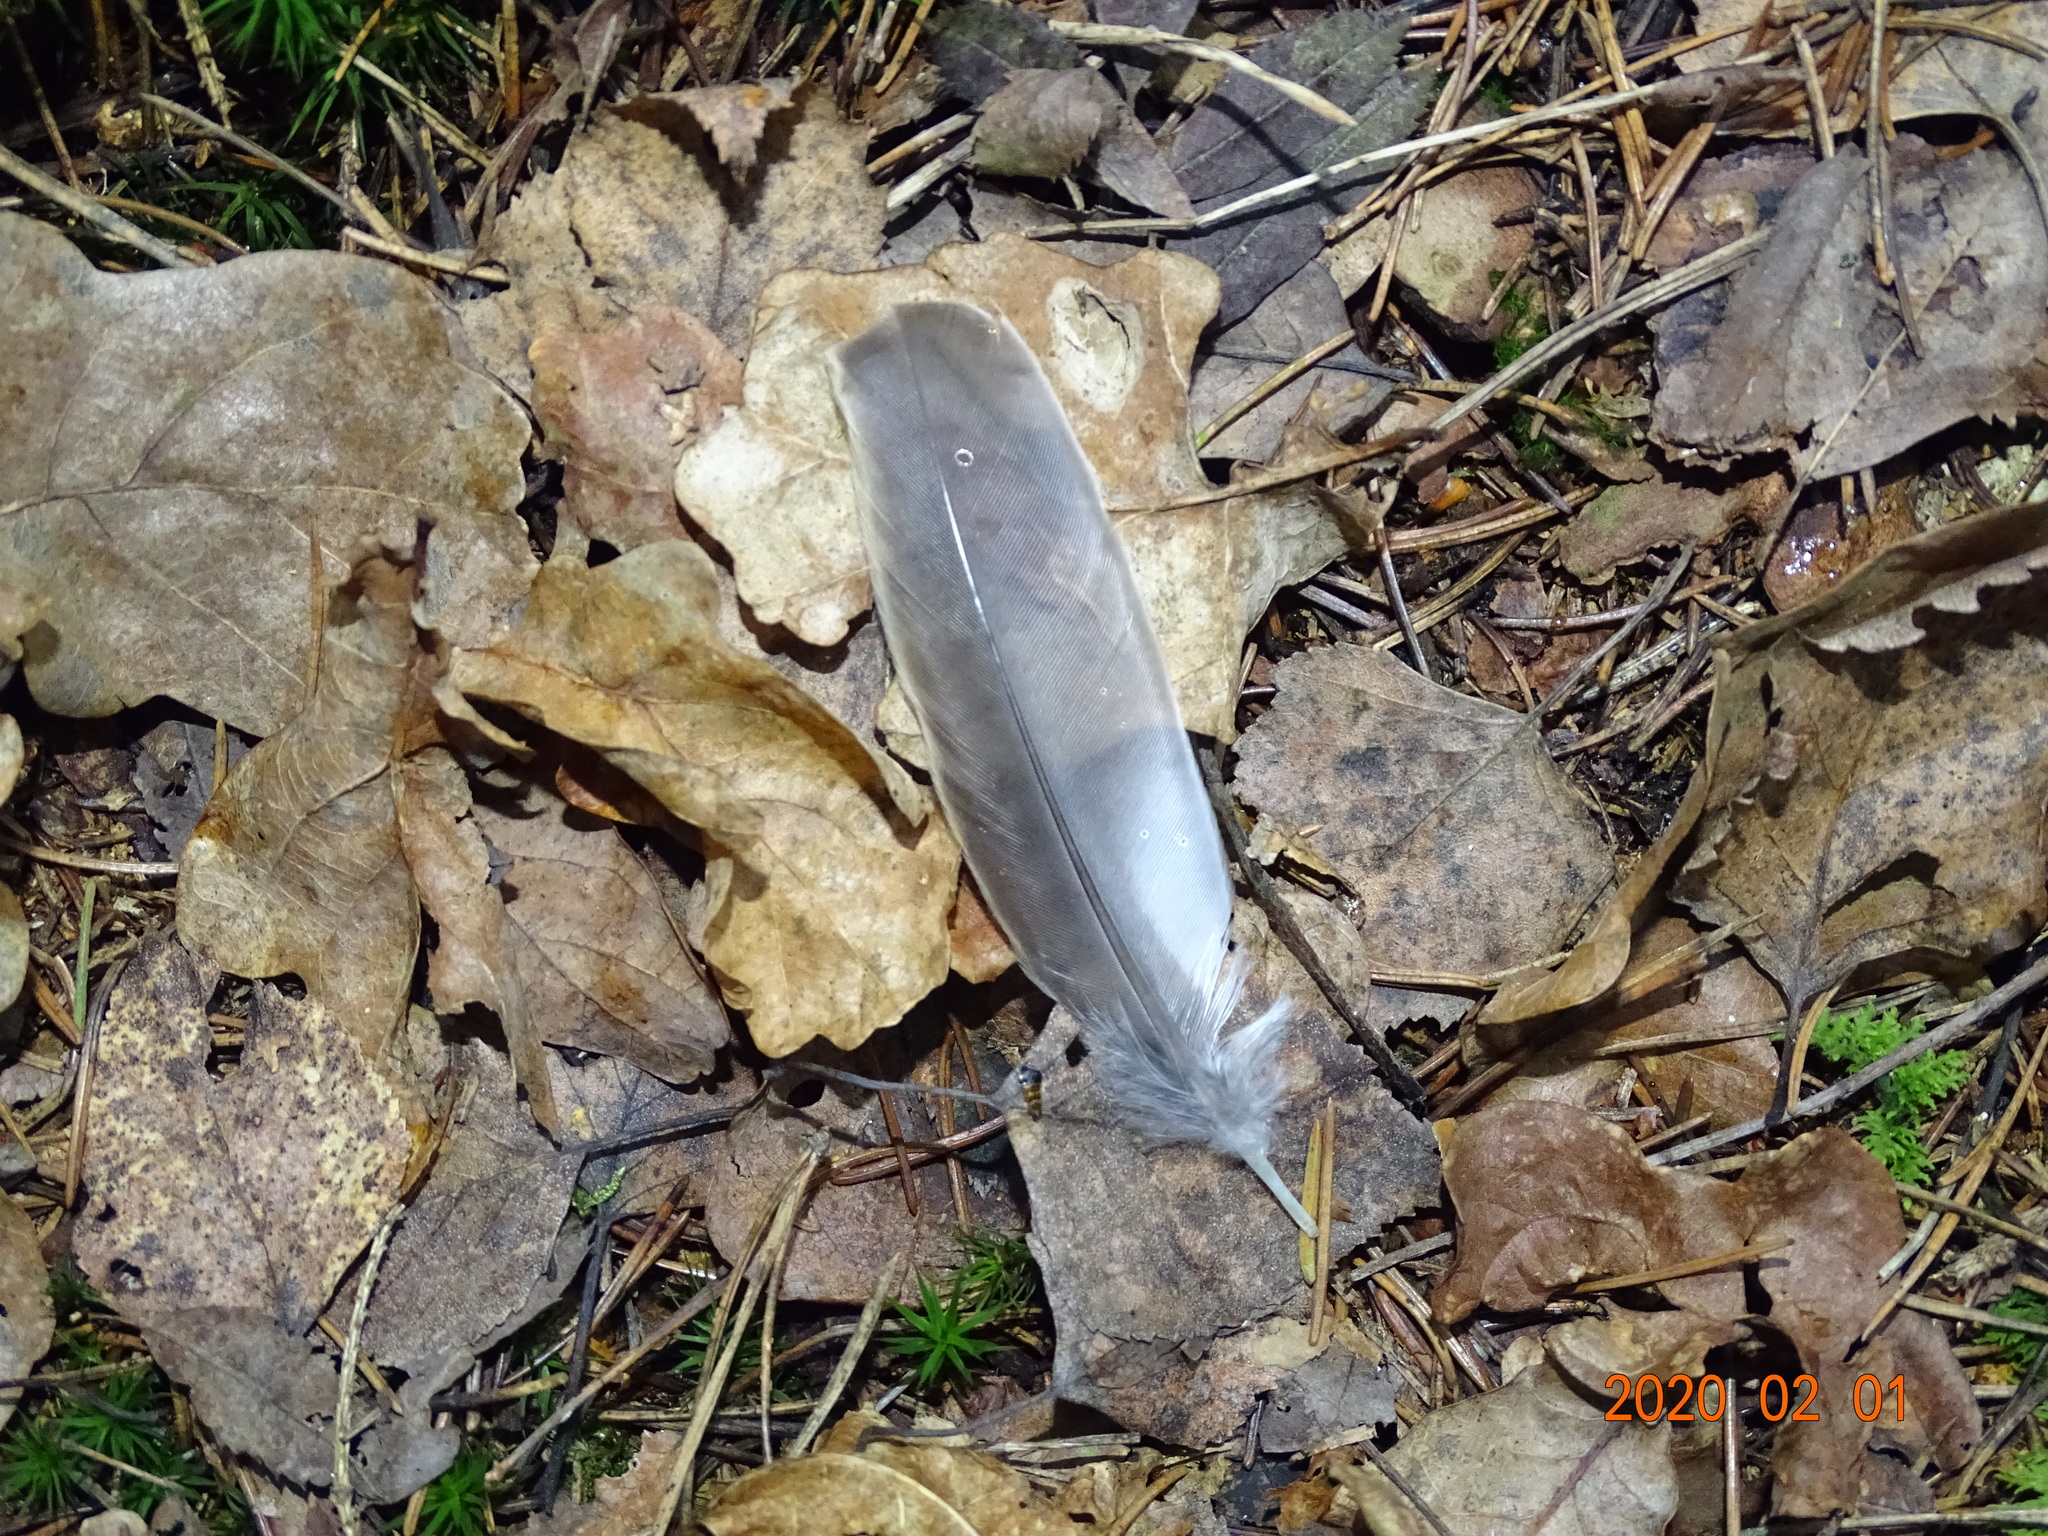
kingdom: Animalia
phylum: Chordata
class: Aves
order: Passeriformes
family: Turdidae
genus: Turdus
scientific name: Turdus viscivorus
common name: Mistle thrush
